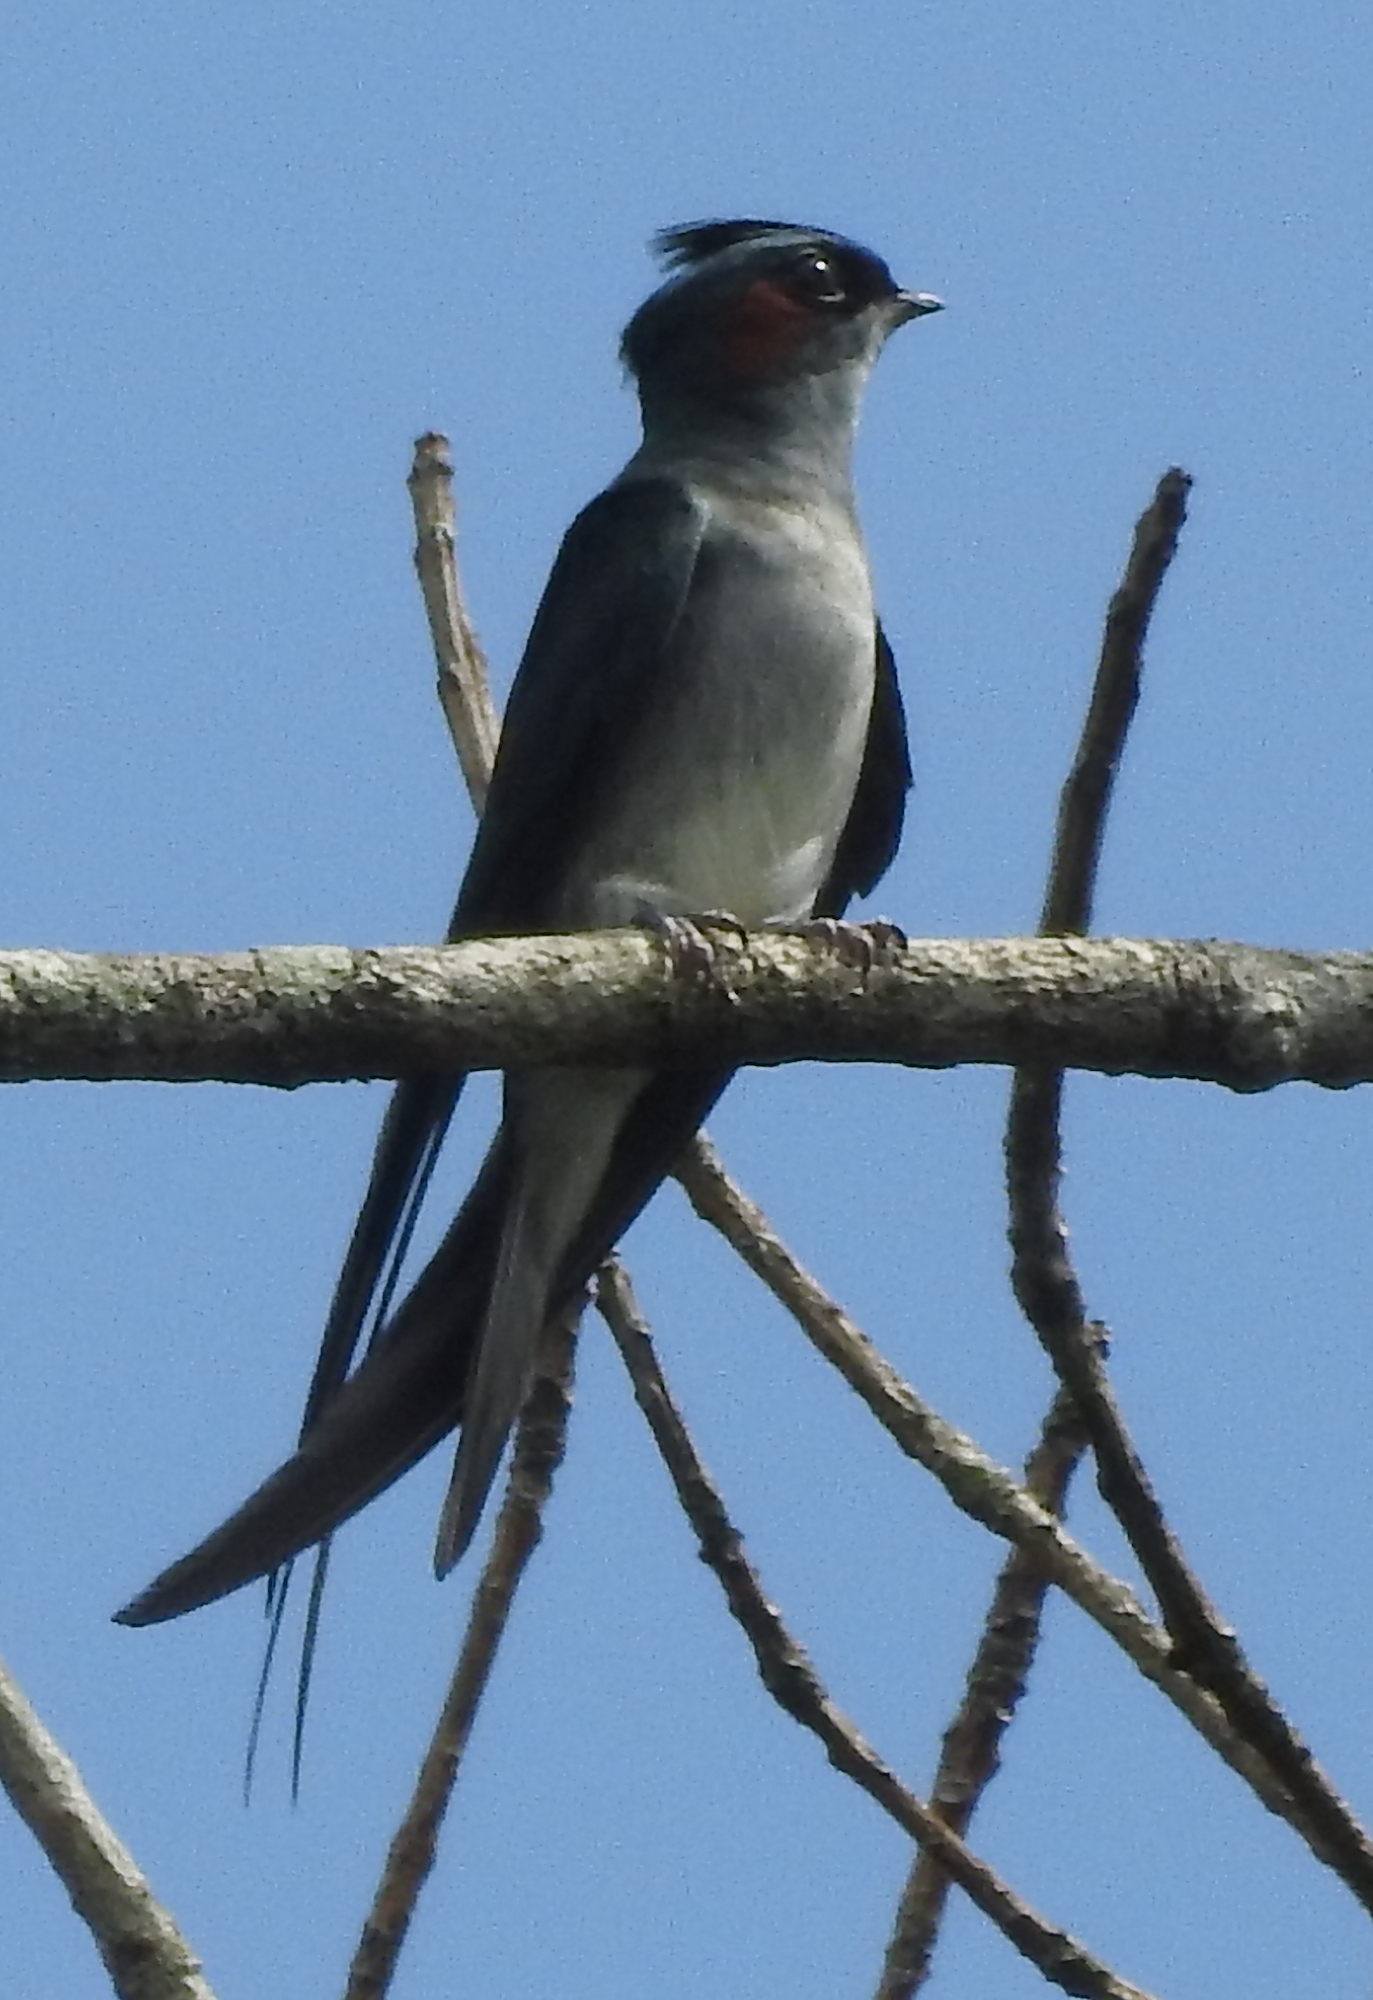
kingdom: Animalia
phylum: Chordata
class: Aves
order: Apodiformes
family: Hemiprocnidae
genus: Hemiprocne
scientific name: Hemiprocne longipennis
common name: Grey-rumped treeswift
